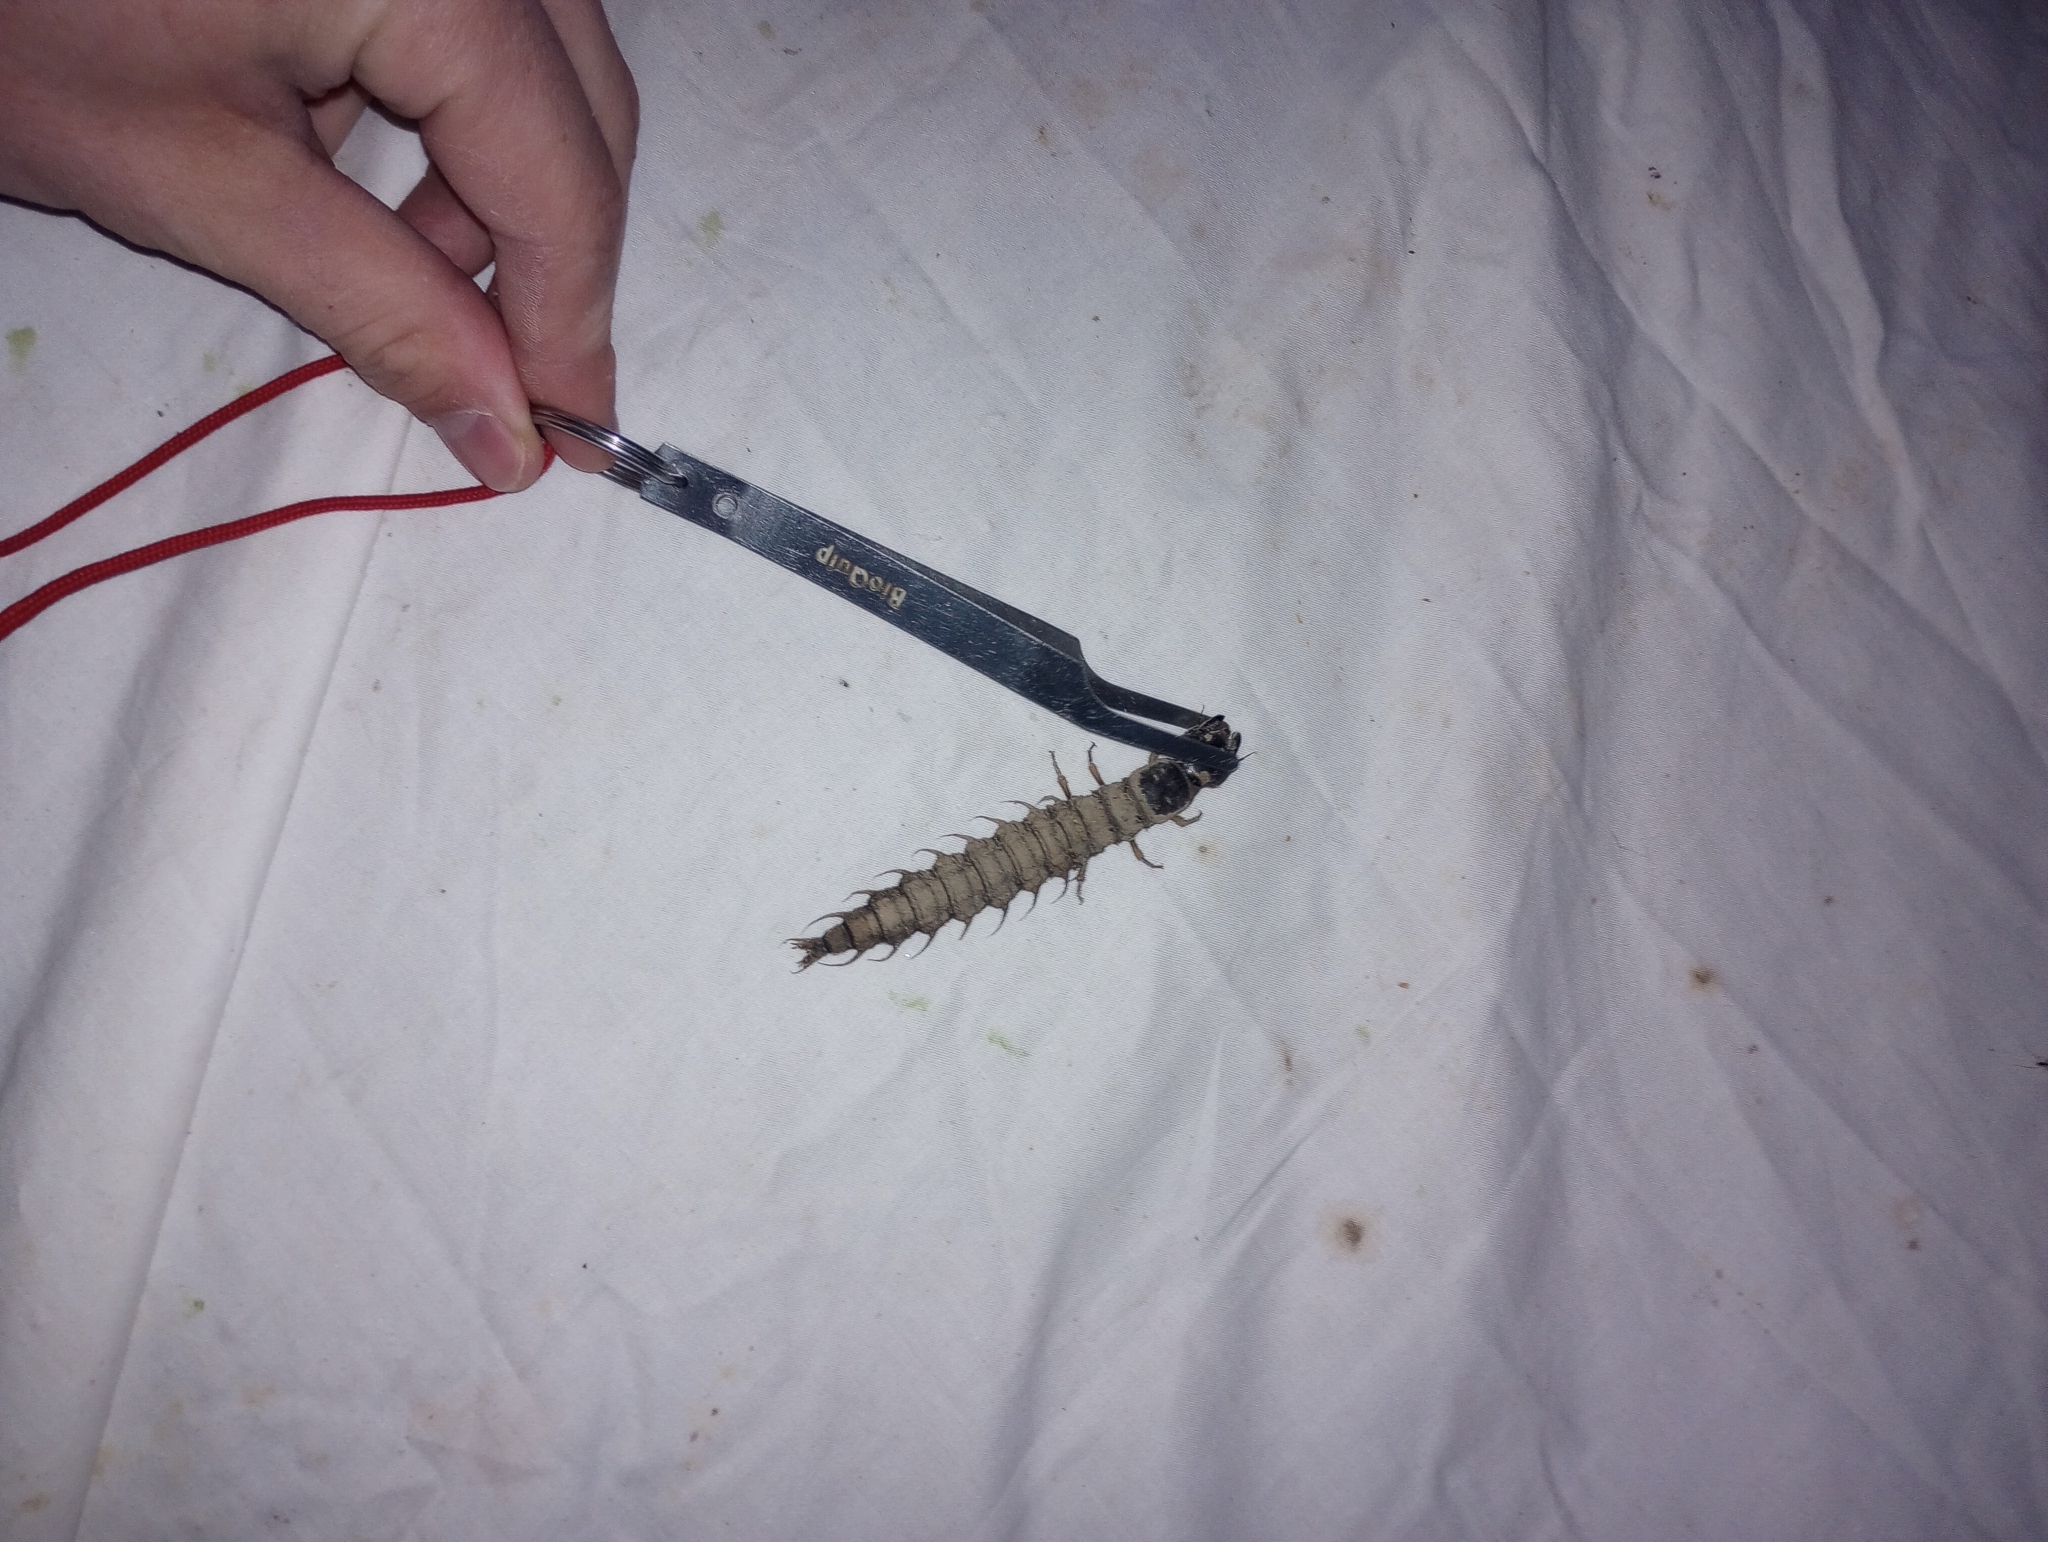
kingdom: Animalia
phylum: Arthropoda
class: Insecta
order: Megaloptera
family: Corydalidae
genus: Corydalus
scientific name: Corydalus cornutus
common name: Dobsonfly
